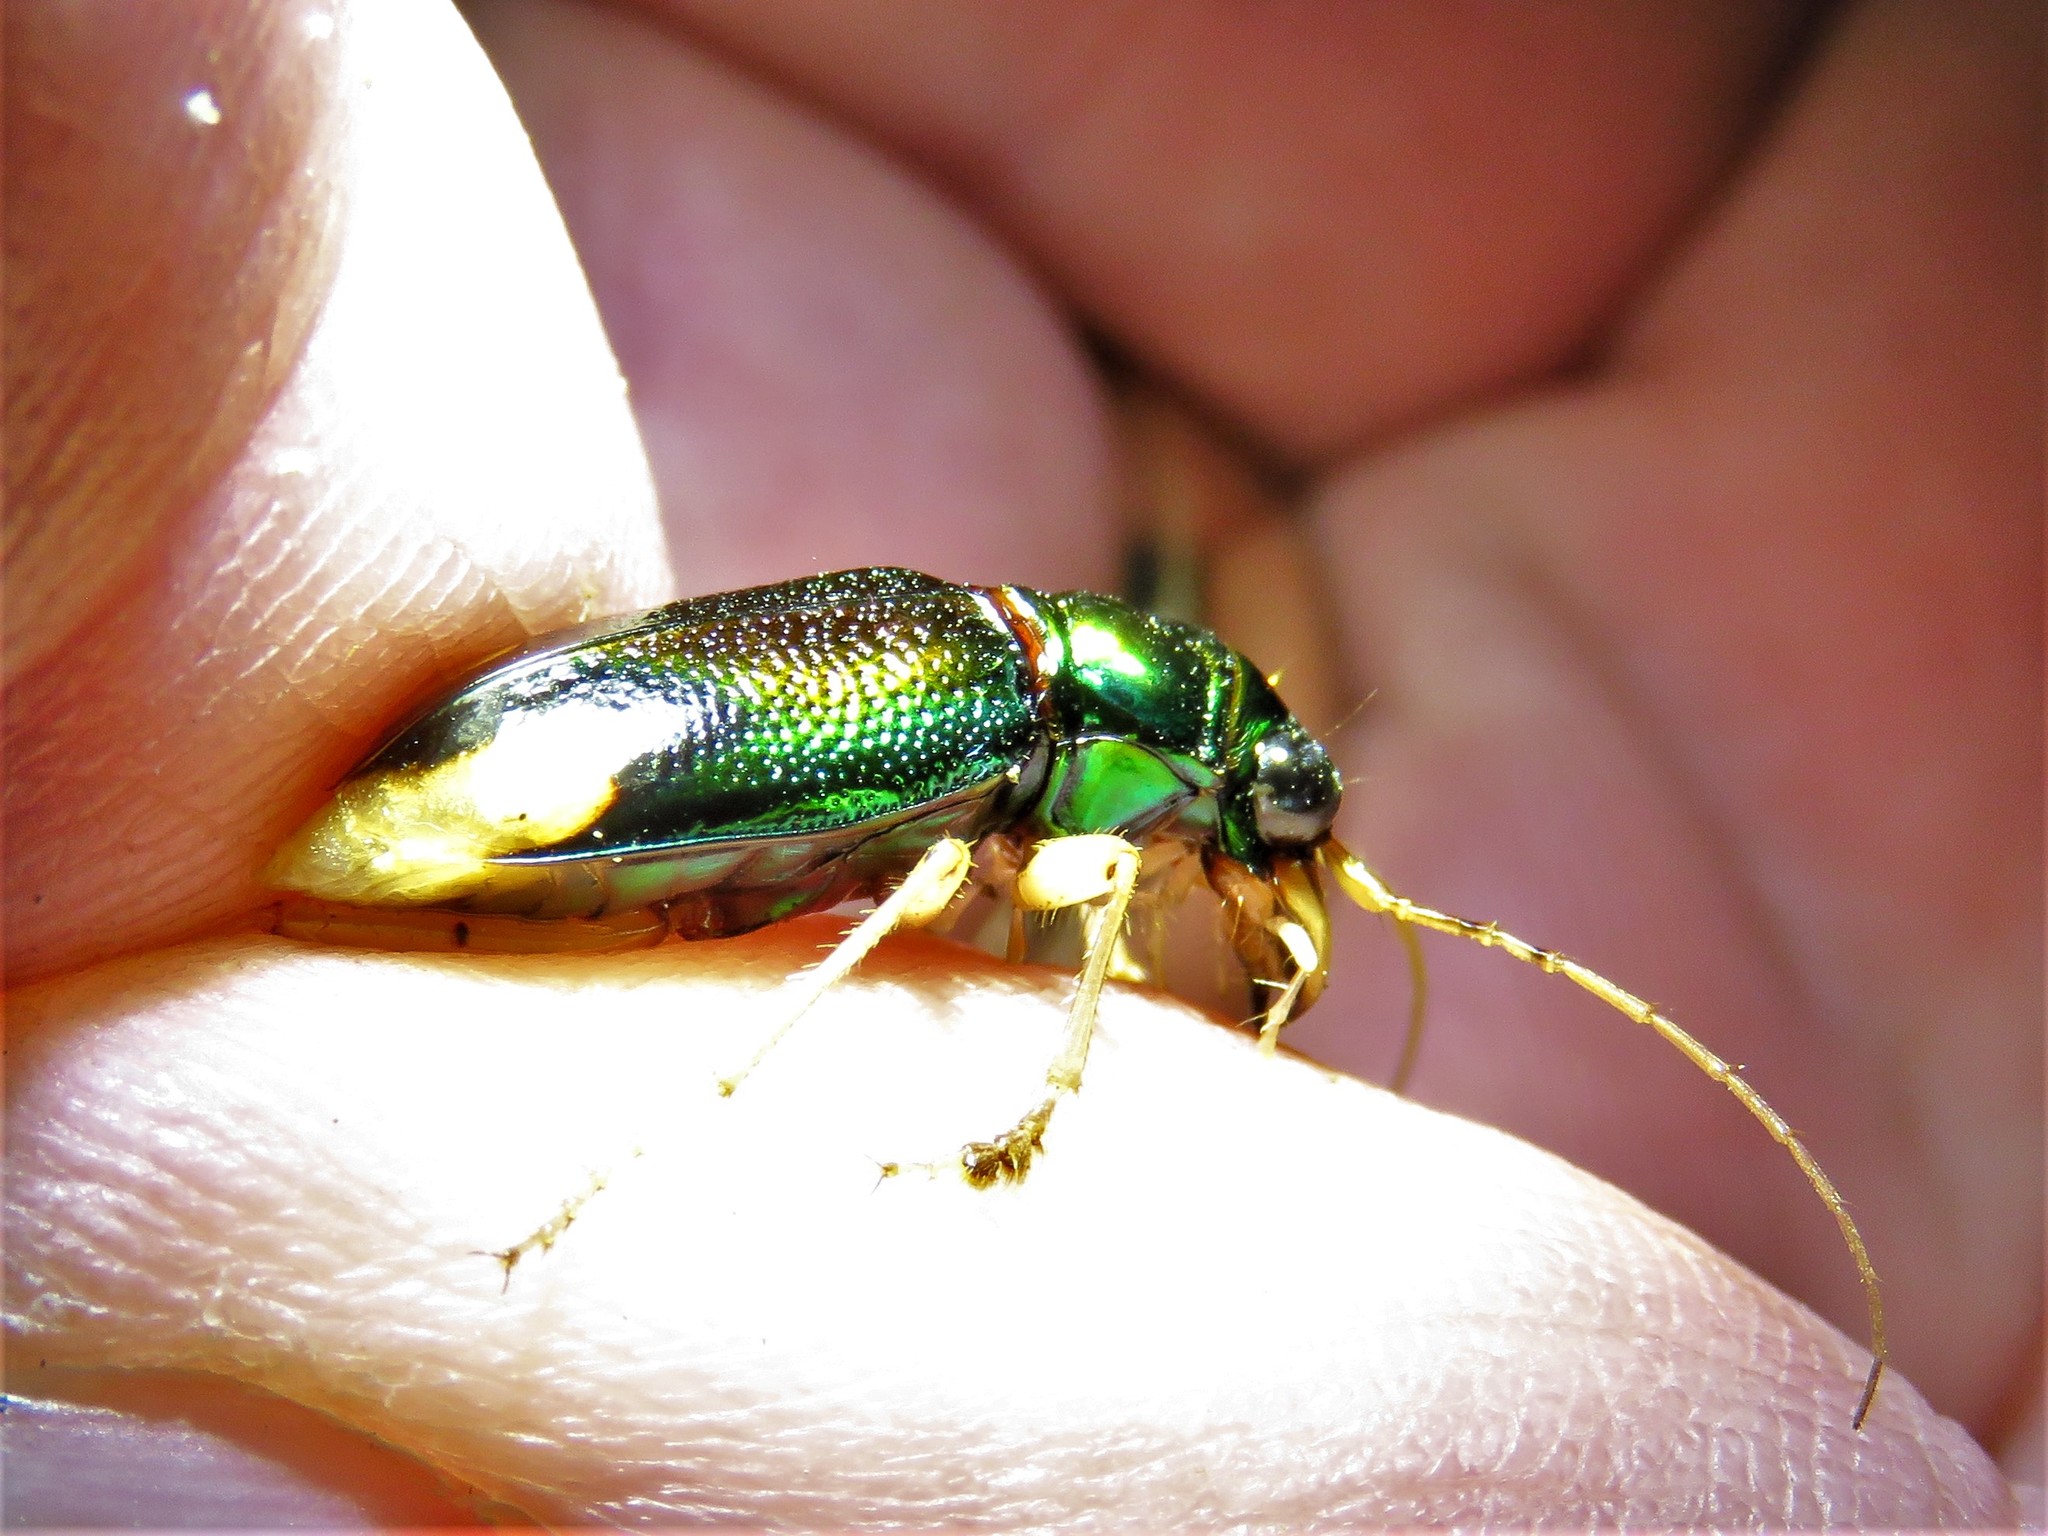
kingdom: Animalia
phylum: Arthropoda
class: Insecta
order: Coleoptera
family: Carabidae
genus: Tetracha
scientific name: Tetracha carolina
